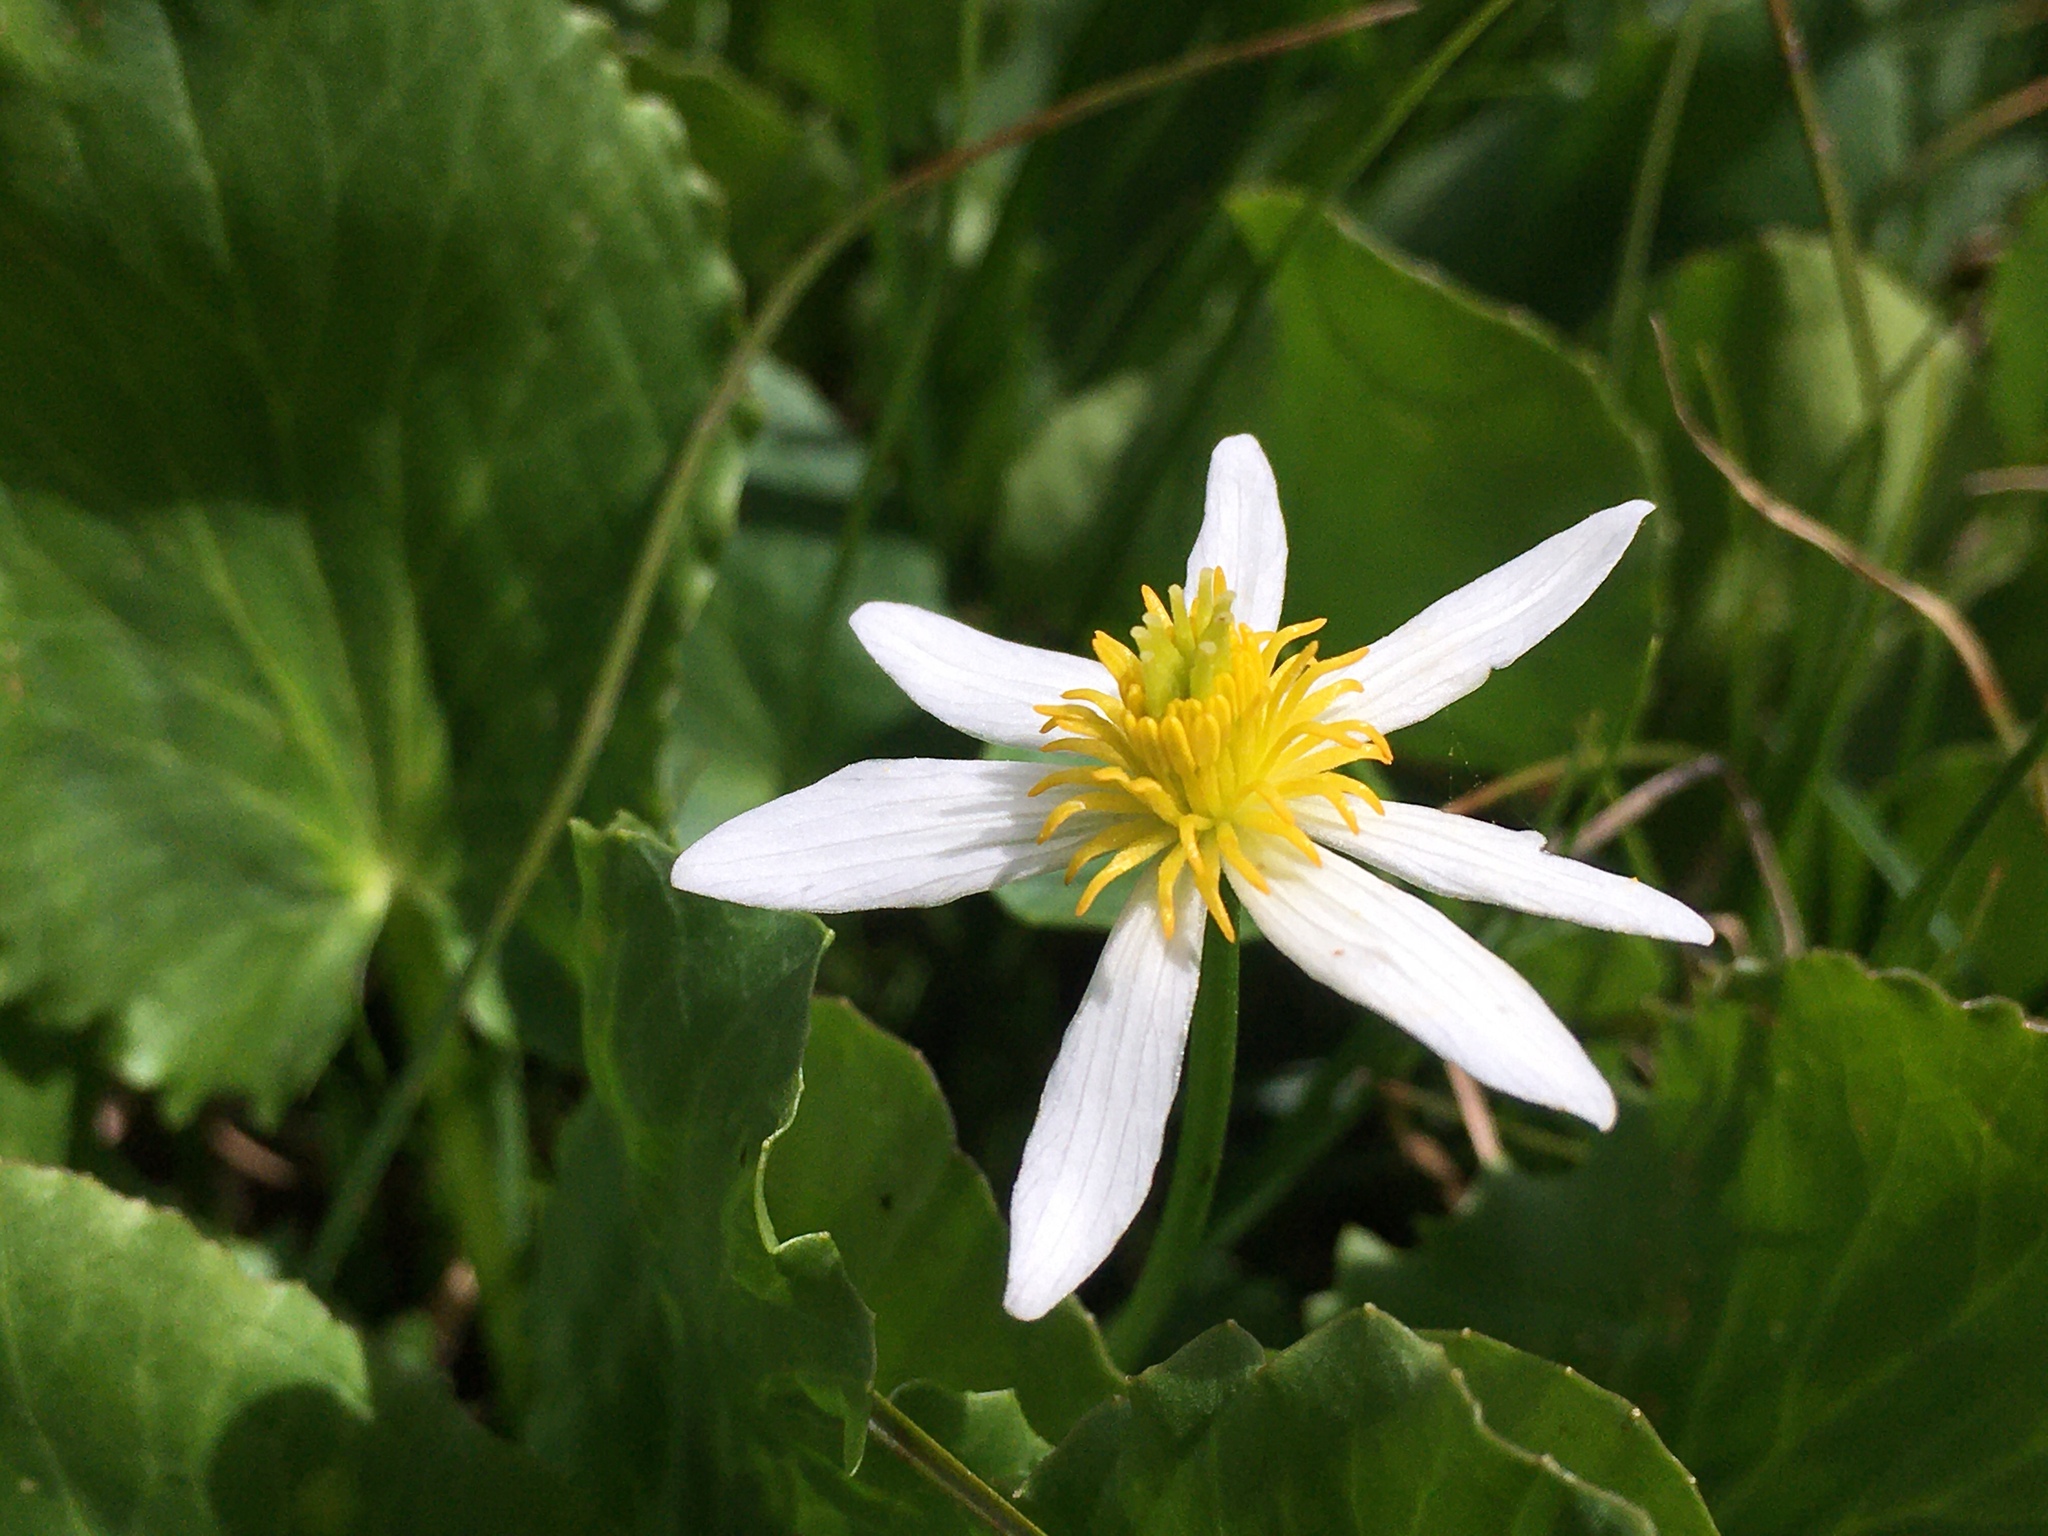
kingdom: Plantae
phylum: Tracheophyta
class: Magnoliopsida
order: Ranunculales
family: Ranunculaceae
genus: Caltha
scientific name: Caltha leptosepala
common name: Elkslip
